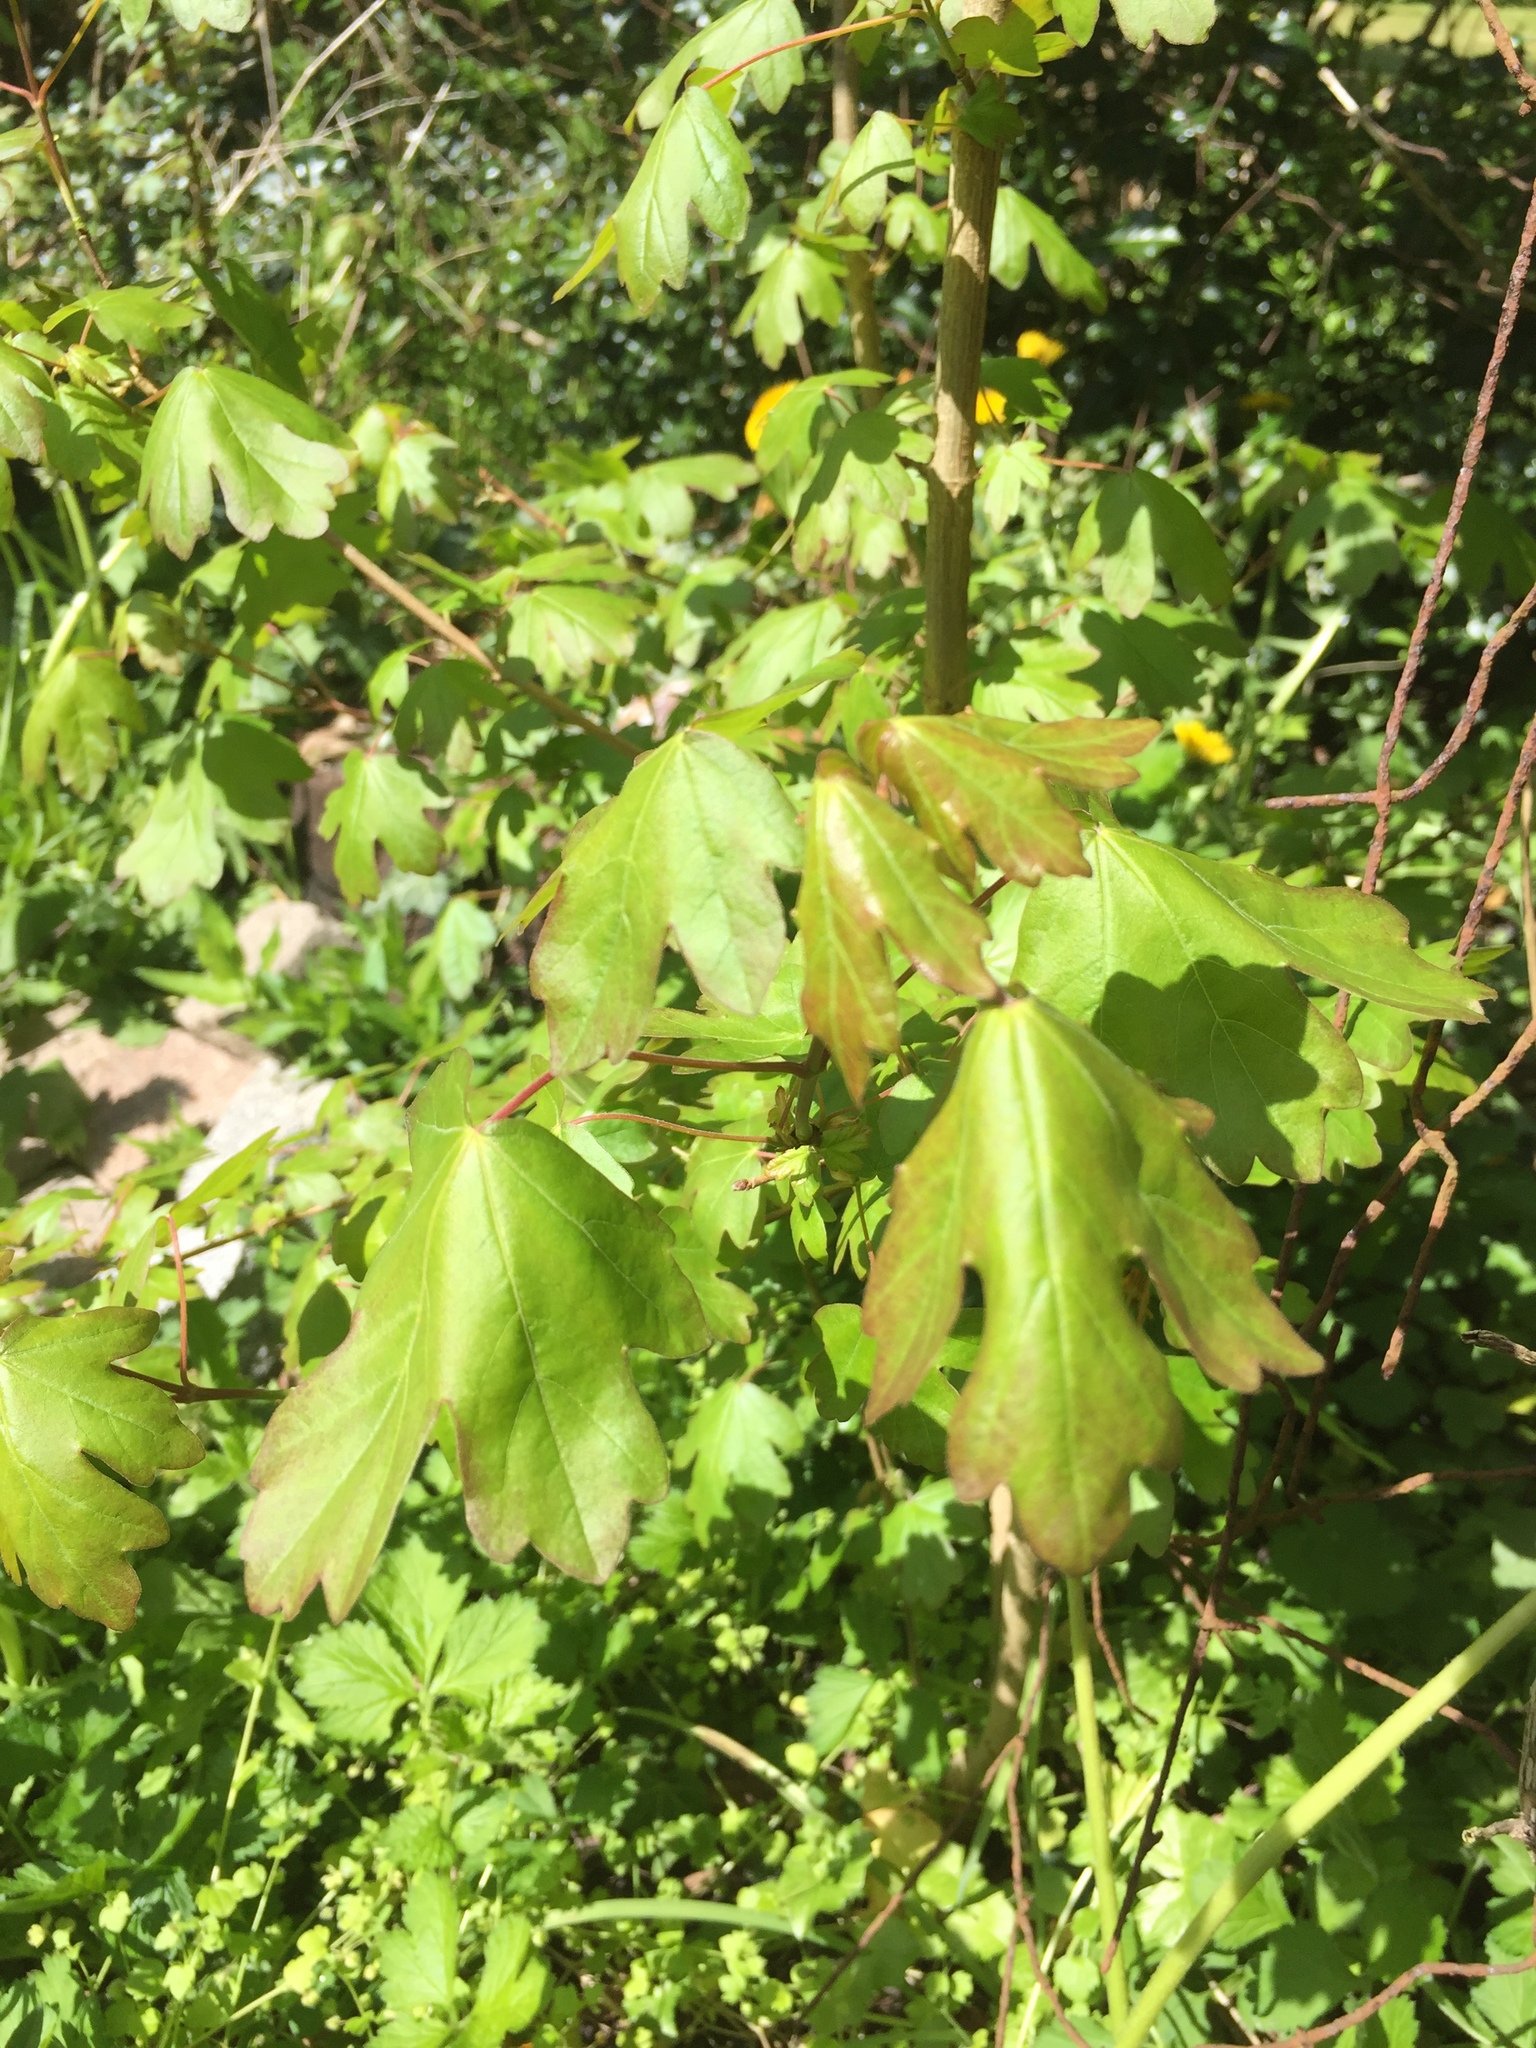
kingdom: Plantae
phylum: Tracheophyta
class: Magnoliopsida
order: Sapindales
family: Sapindaceae
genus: Acer
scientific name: Acer campestre
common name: Field maple
